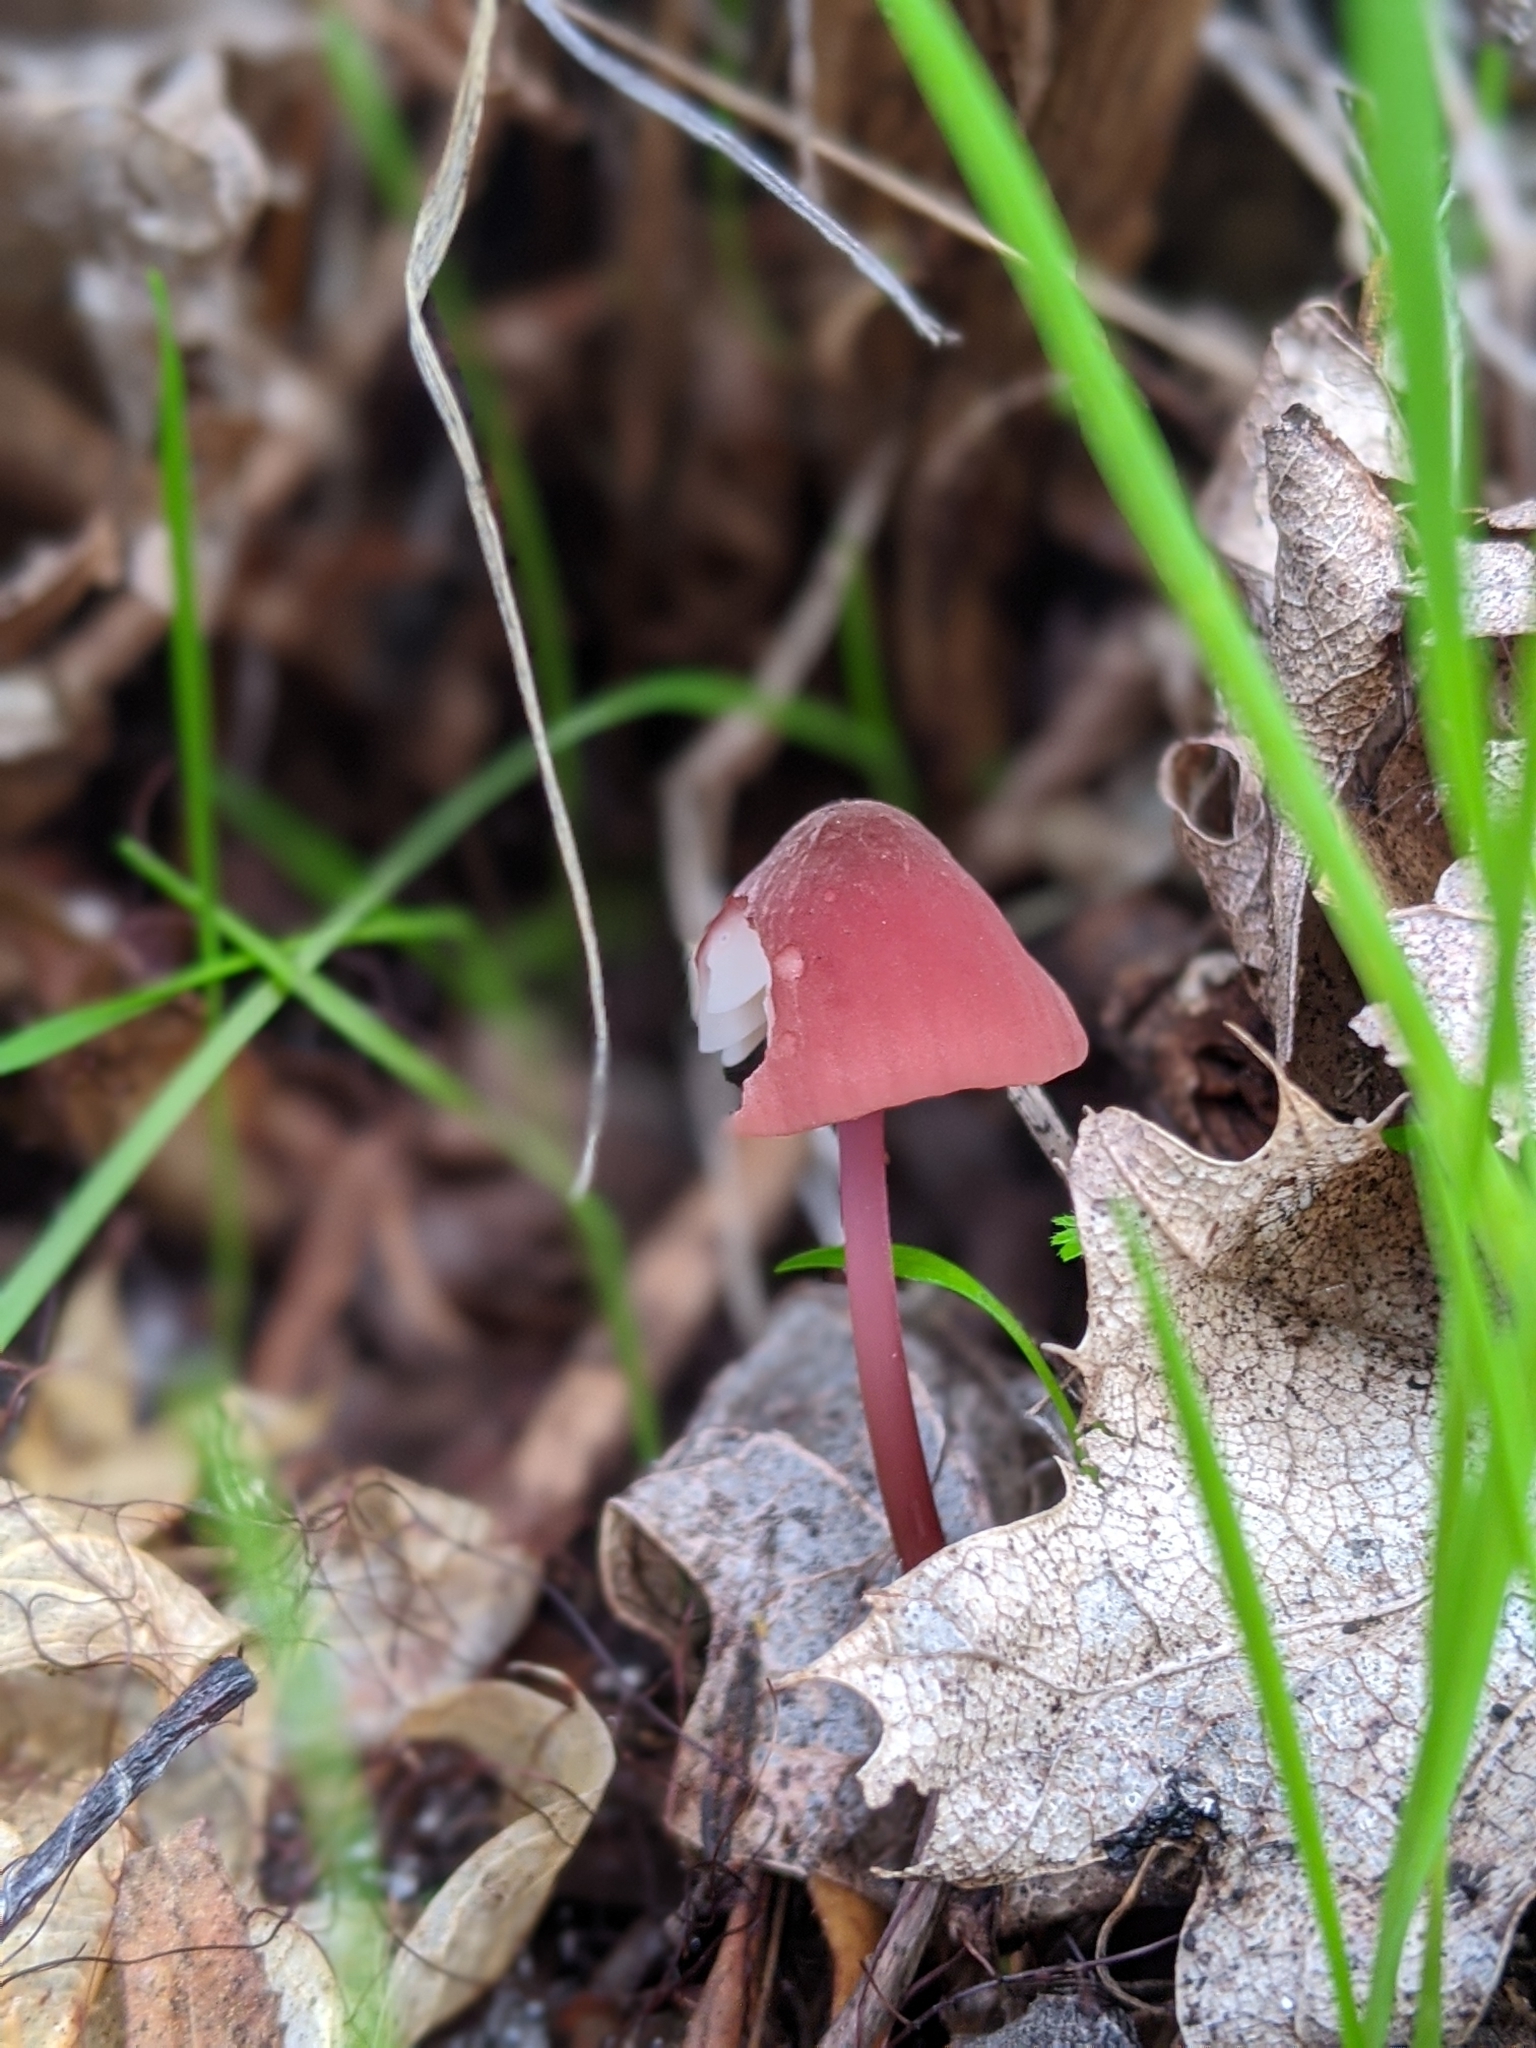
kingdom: Fungi
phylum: Basidiomycota
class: Agaricomycetes
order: Agaricales
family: Marasmiaceae
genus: Marasmius
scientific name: Marasmius plicatulus
